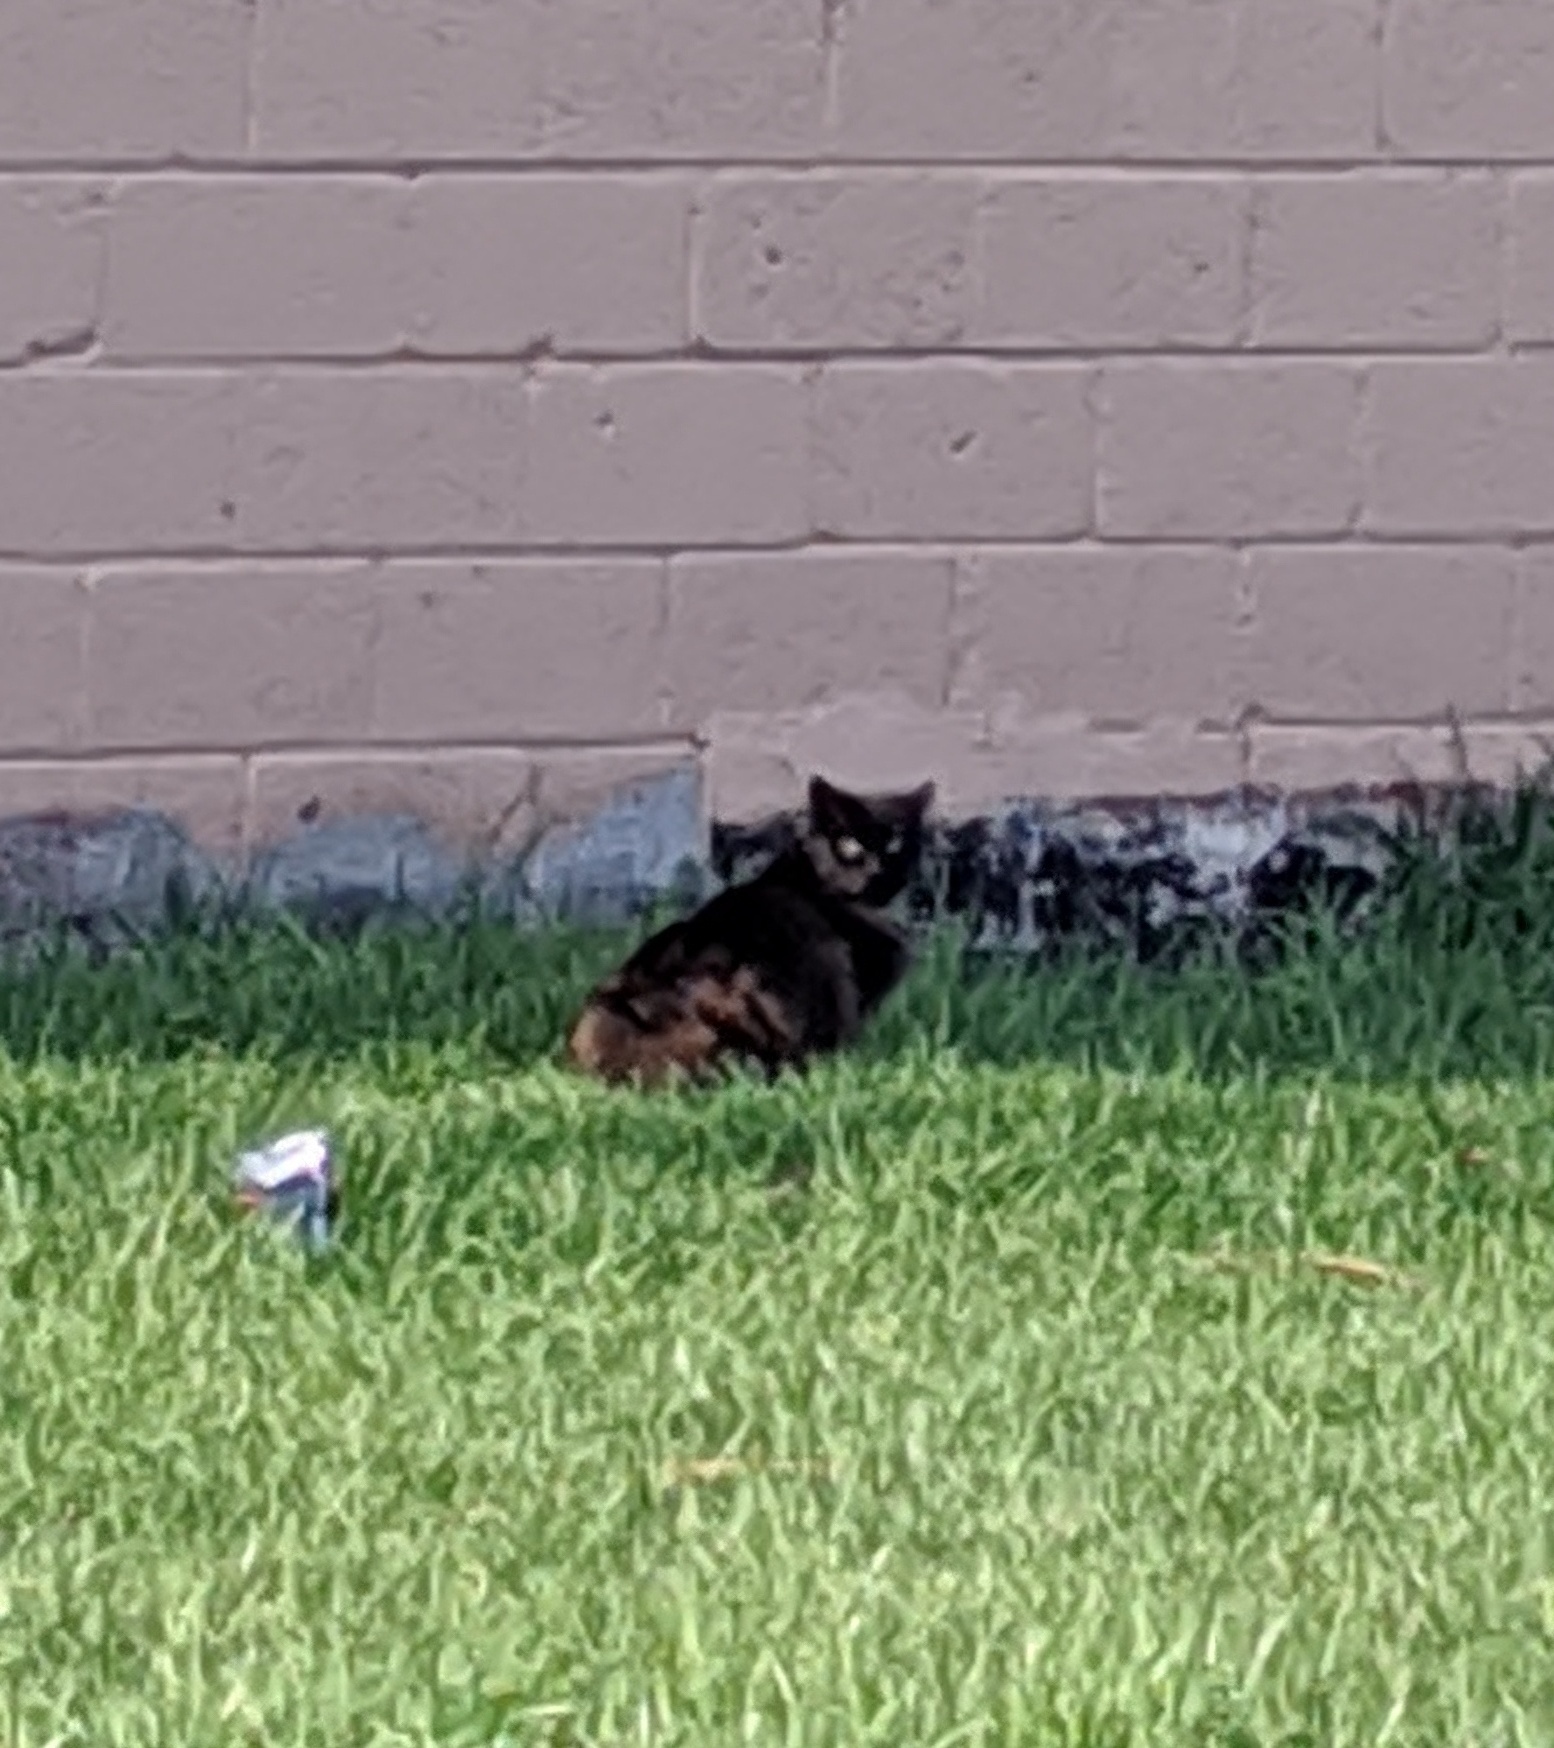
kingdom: Animalia
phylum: Chordata
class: Mammalia
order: Carnivora
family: Felidae
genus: Felis
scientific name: Felis catus
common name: Domestic cat
